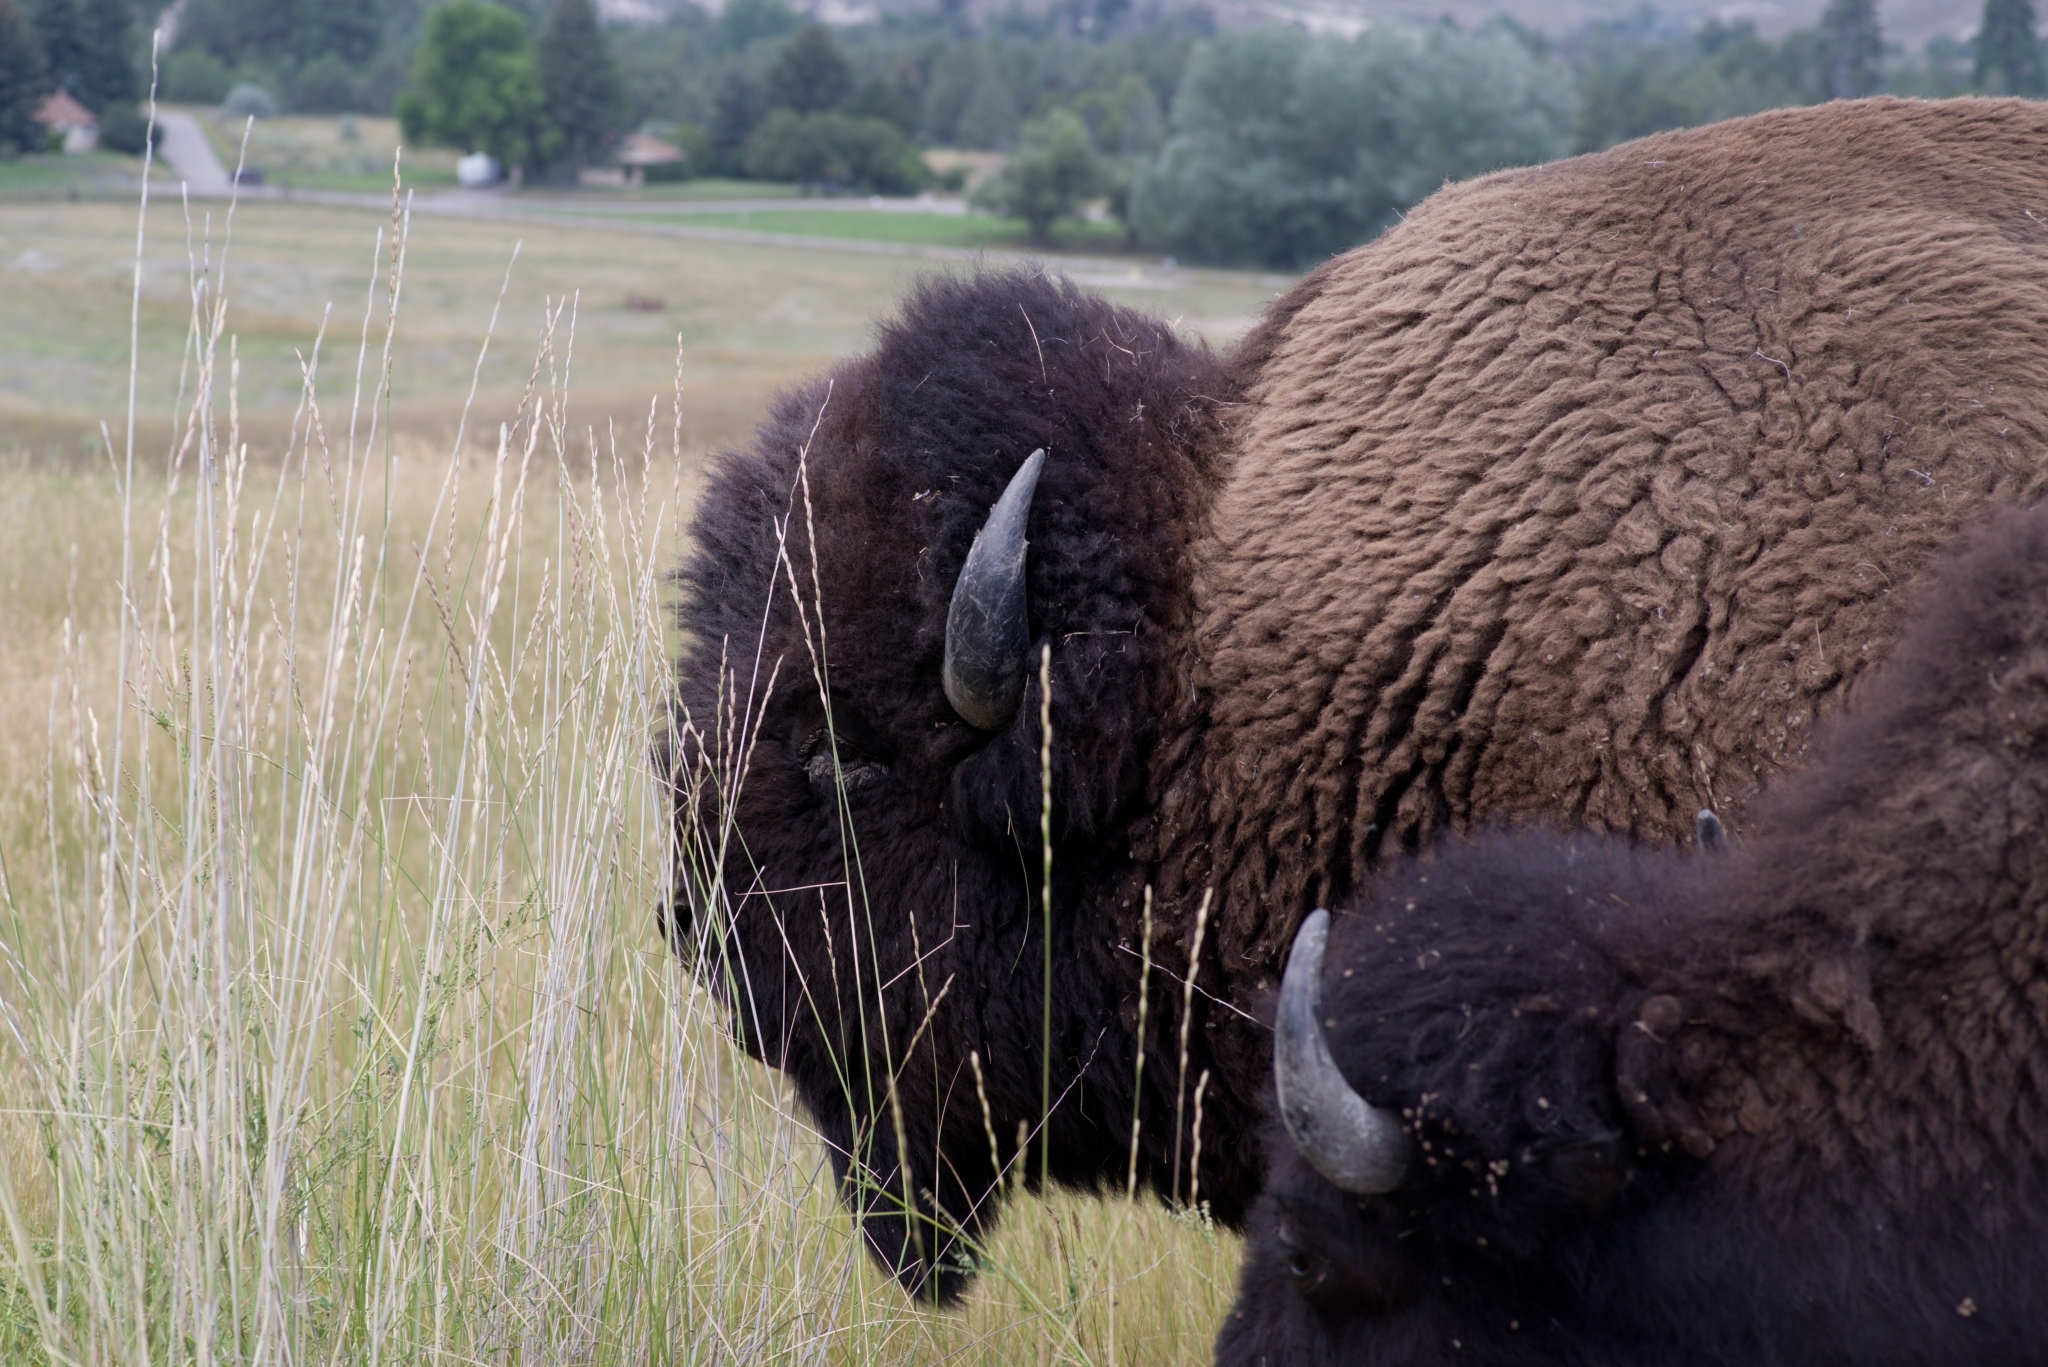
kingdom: Animalia
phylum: Chordata
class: Mammalia
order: Artiodactyla
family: Bovidae
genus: Bison
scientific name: Bison bison
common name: American bison
